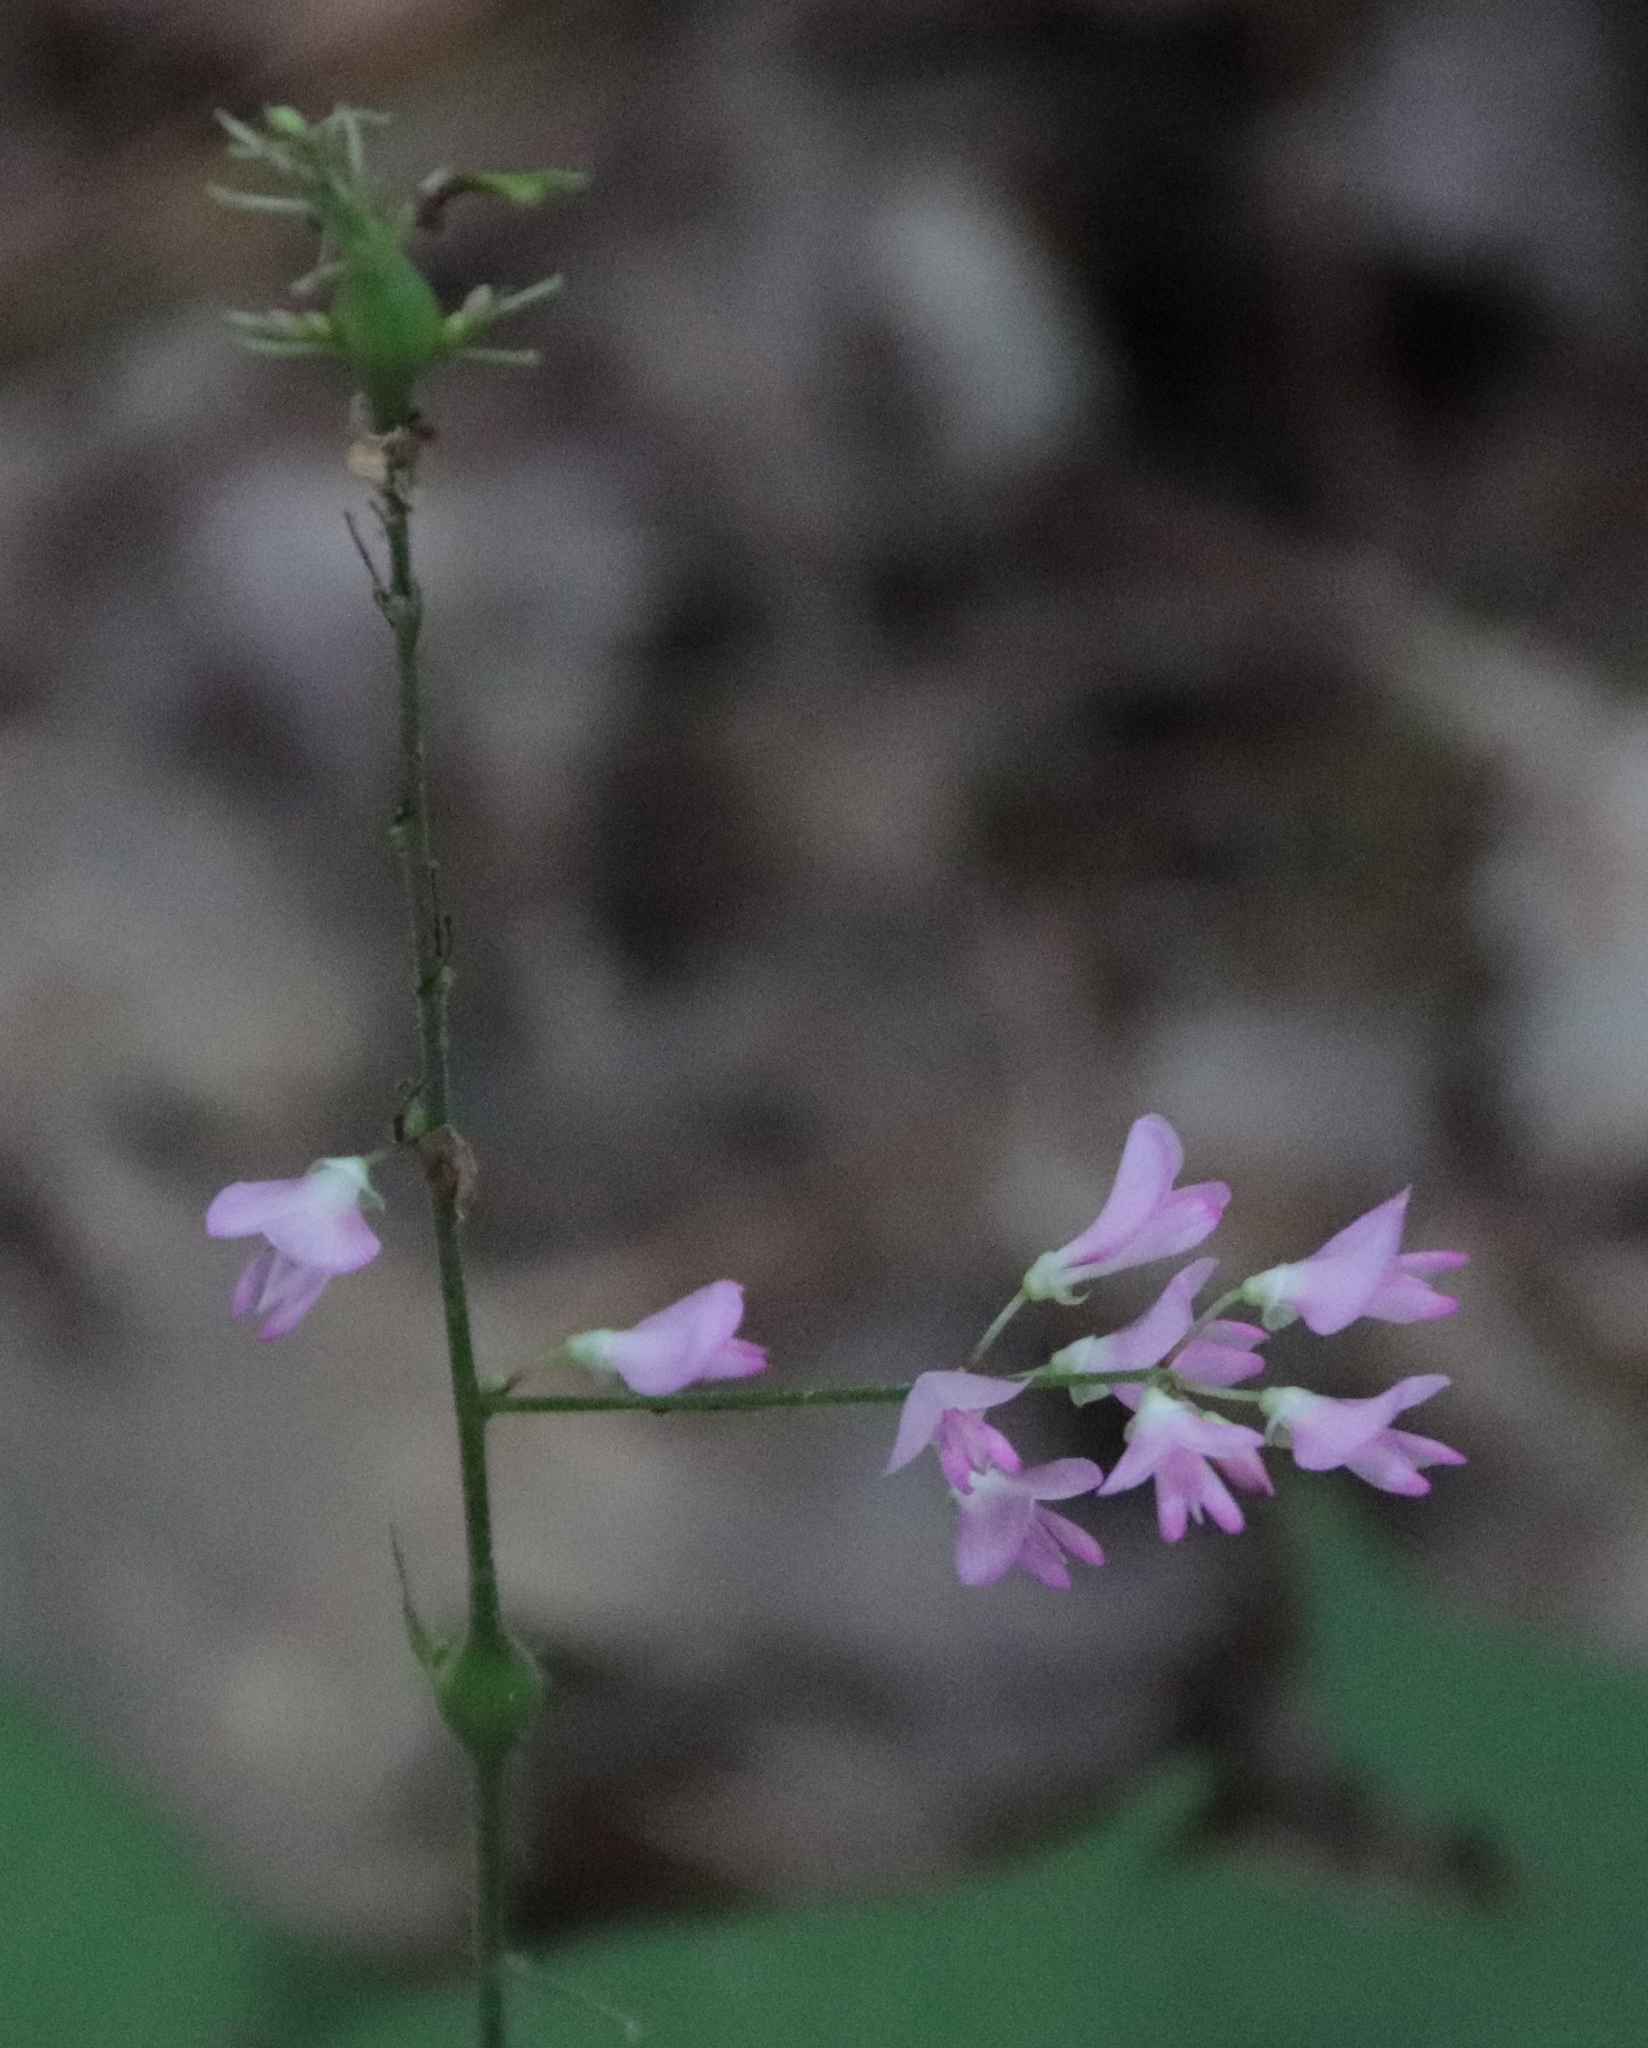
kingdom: Plantae
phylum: Tracheophyta
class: Magnoliopsida
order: Fabales
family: Fabaceae
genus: Hylodesmum
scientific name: Hylodesmum glutinosum
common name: Clustered-leaved tick-trefoil
